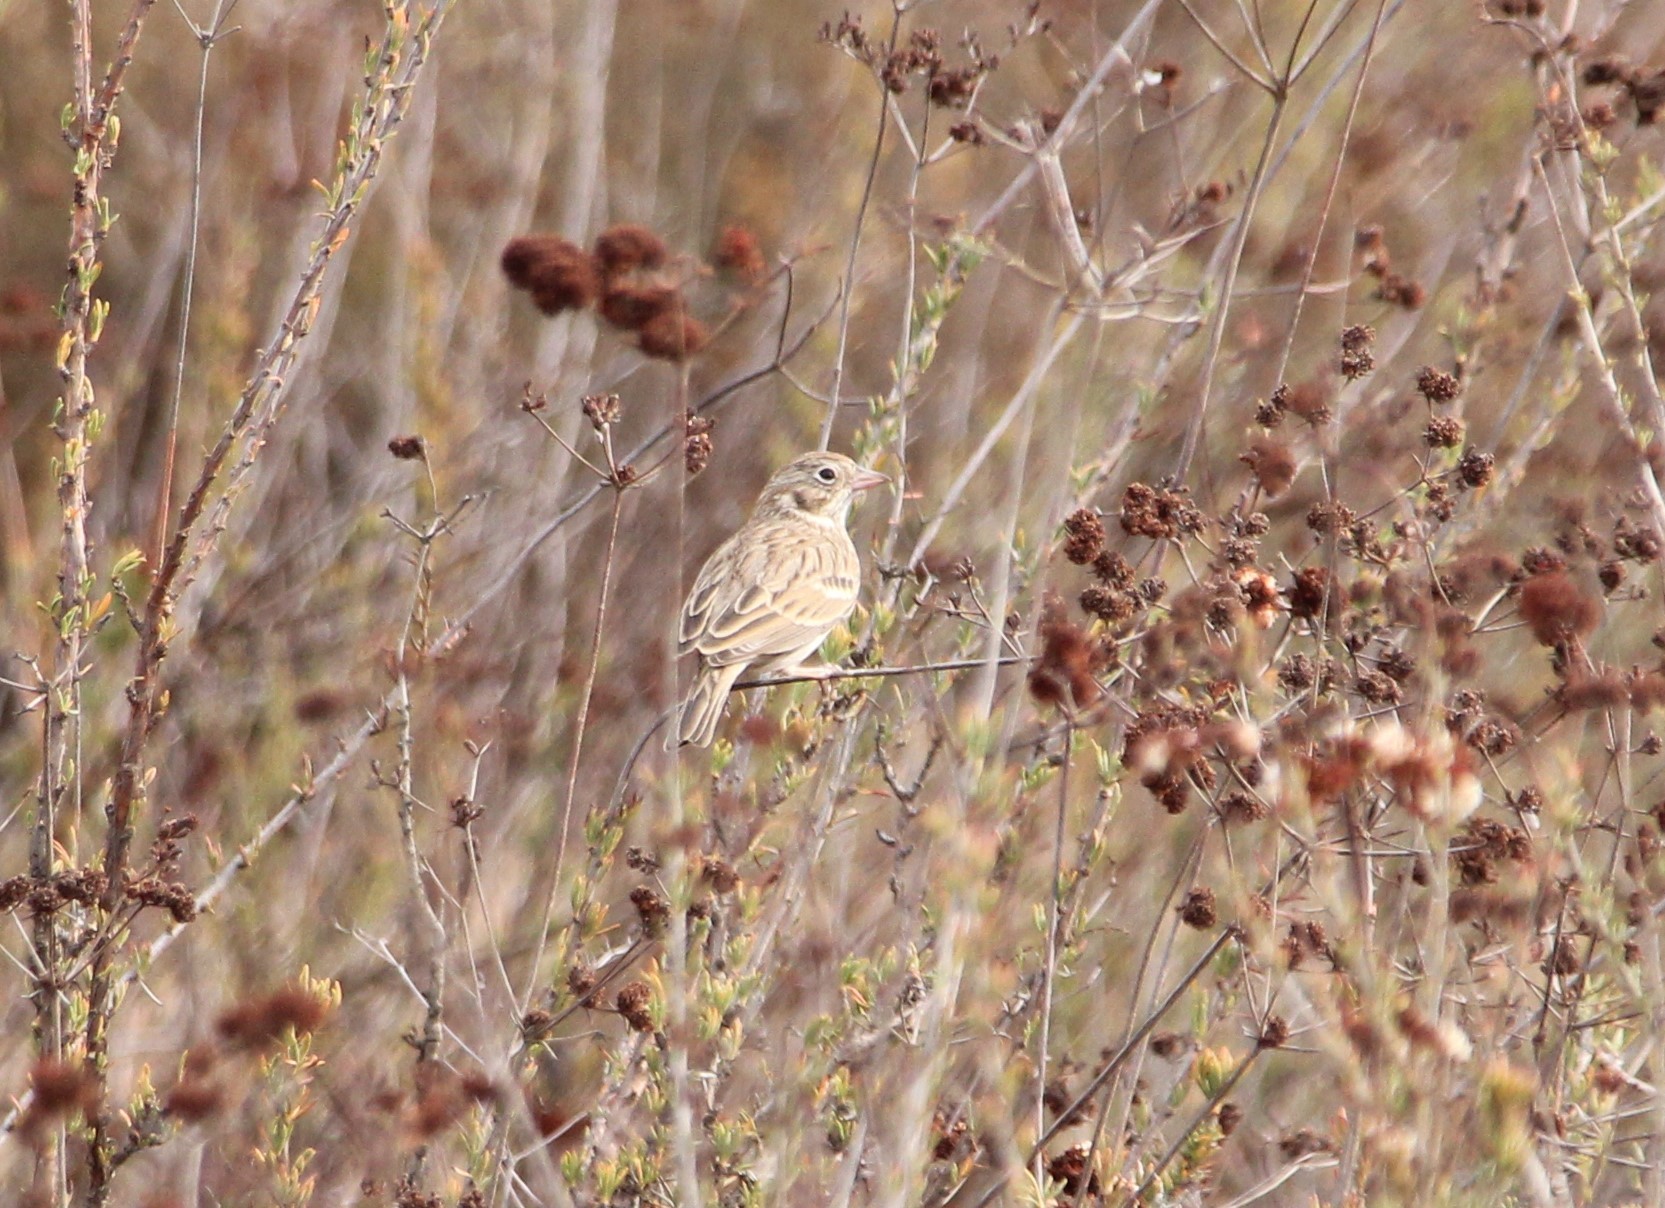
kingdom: Animalia
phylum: Chordata
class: Aves
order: Passeriformes
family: Passerellidae
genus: Pooecetes
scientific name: Pooecetes gramineus
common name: Vesper sparrow
